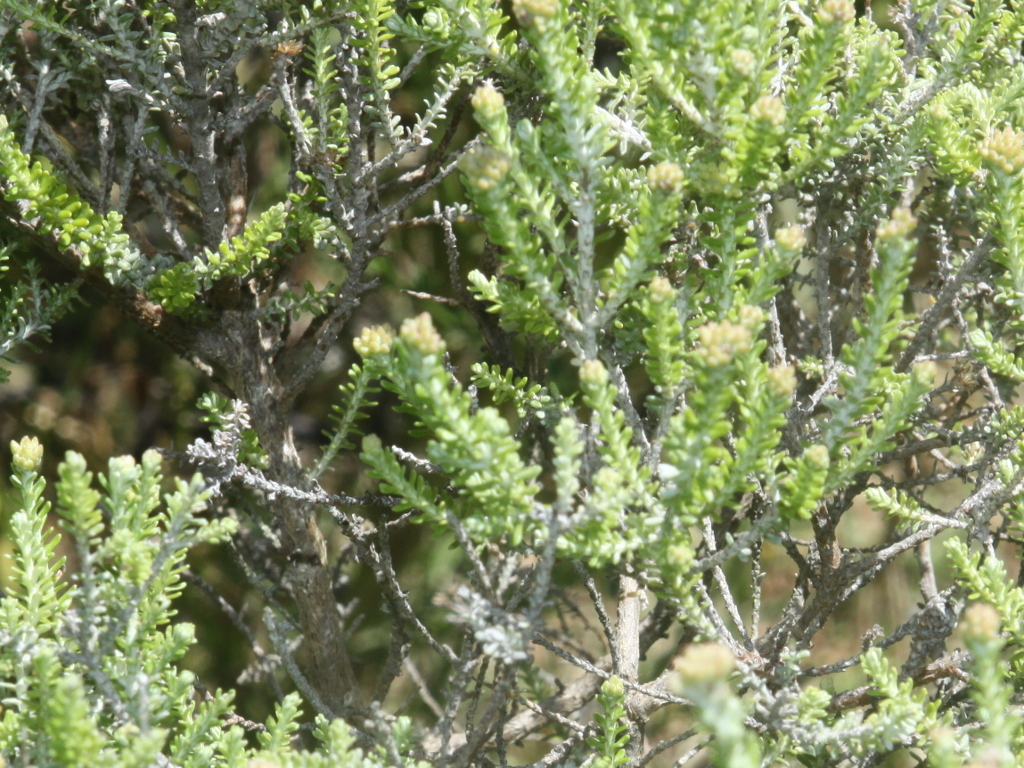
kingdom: Plantae
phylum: Tracheophyta
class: Magnoliopsida
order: Asterales
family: Asteraceae
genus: Ozothamnus
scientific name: Ozothamnus leptophyllus
